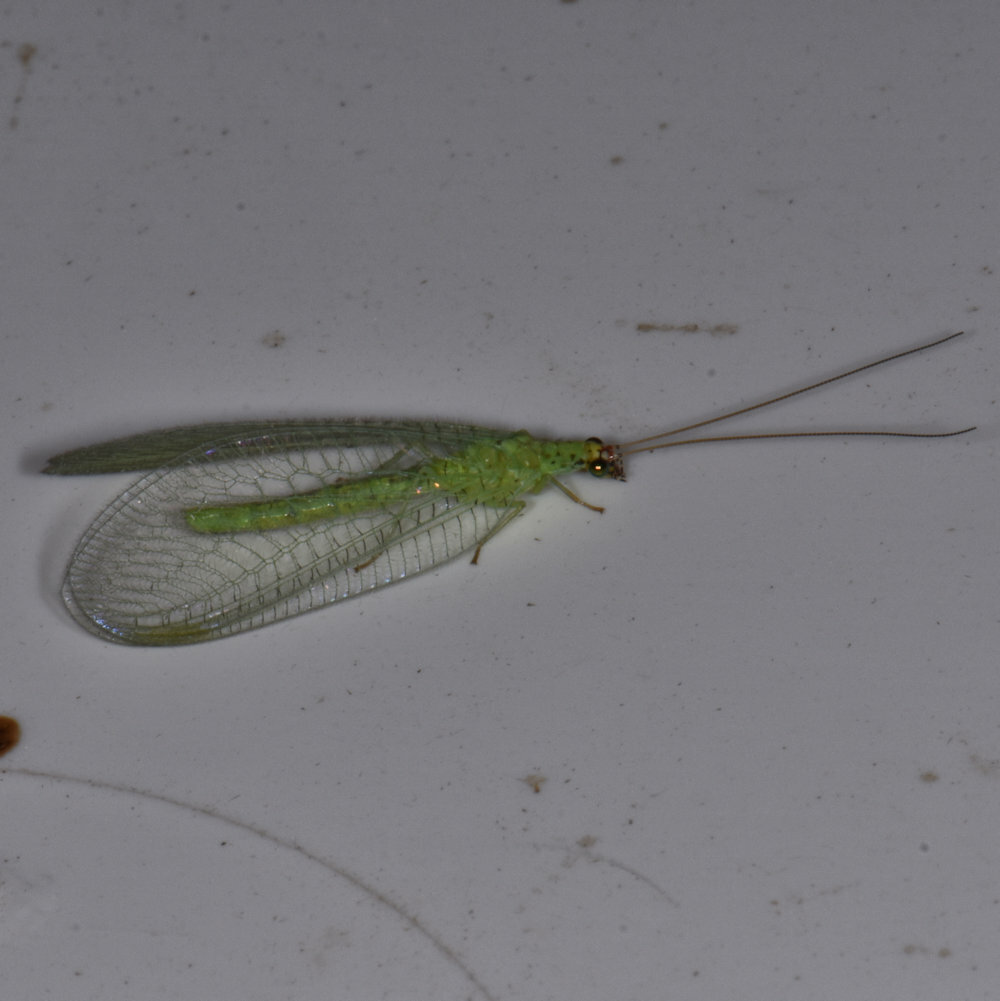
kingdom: Animalia
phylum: Arthropoda
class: Insecta
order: Neuroptera
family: Chrysopidae
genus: Chrysopa
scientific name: Chrysopa oculata
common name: Golden-eyed lacewing
